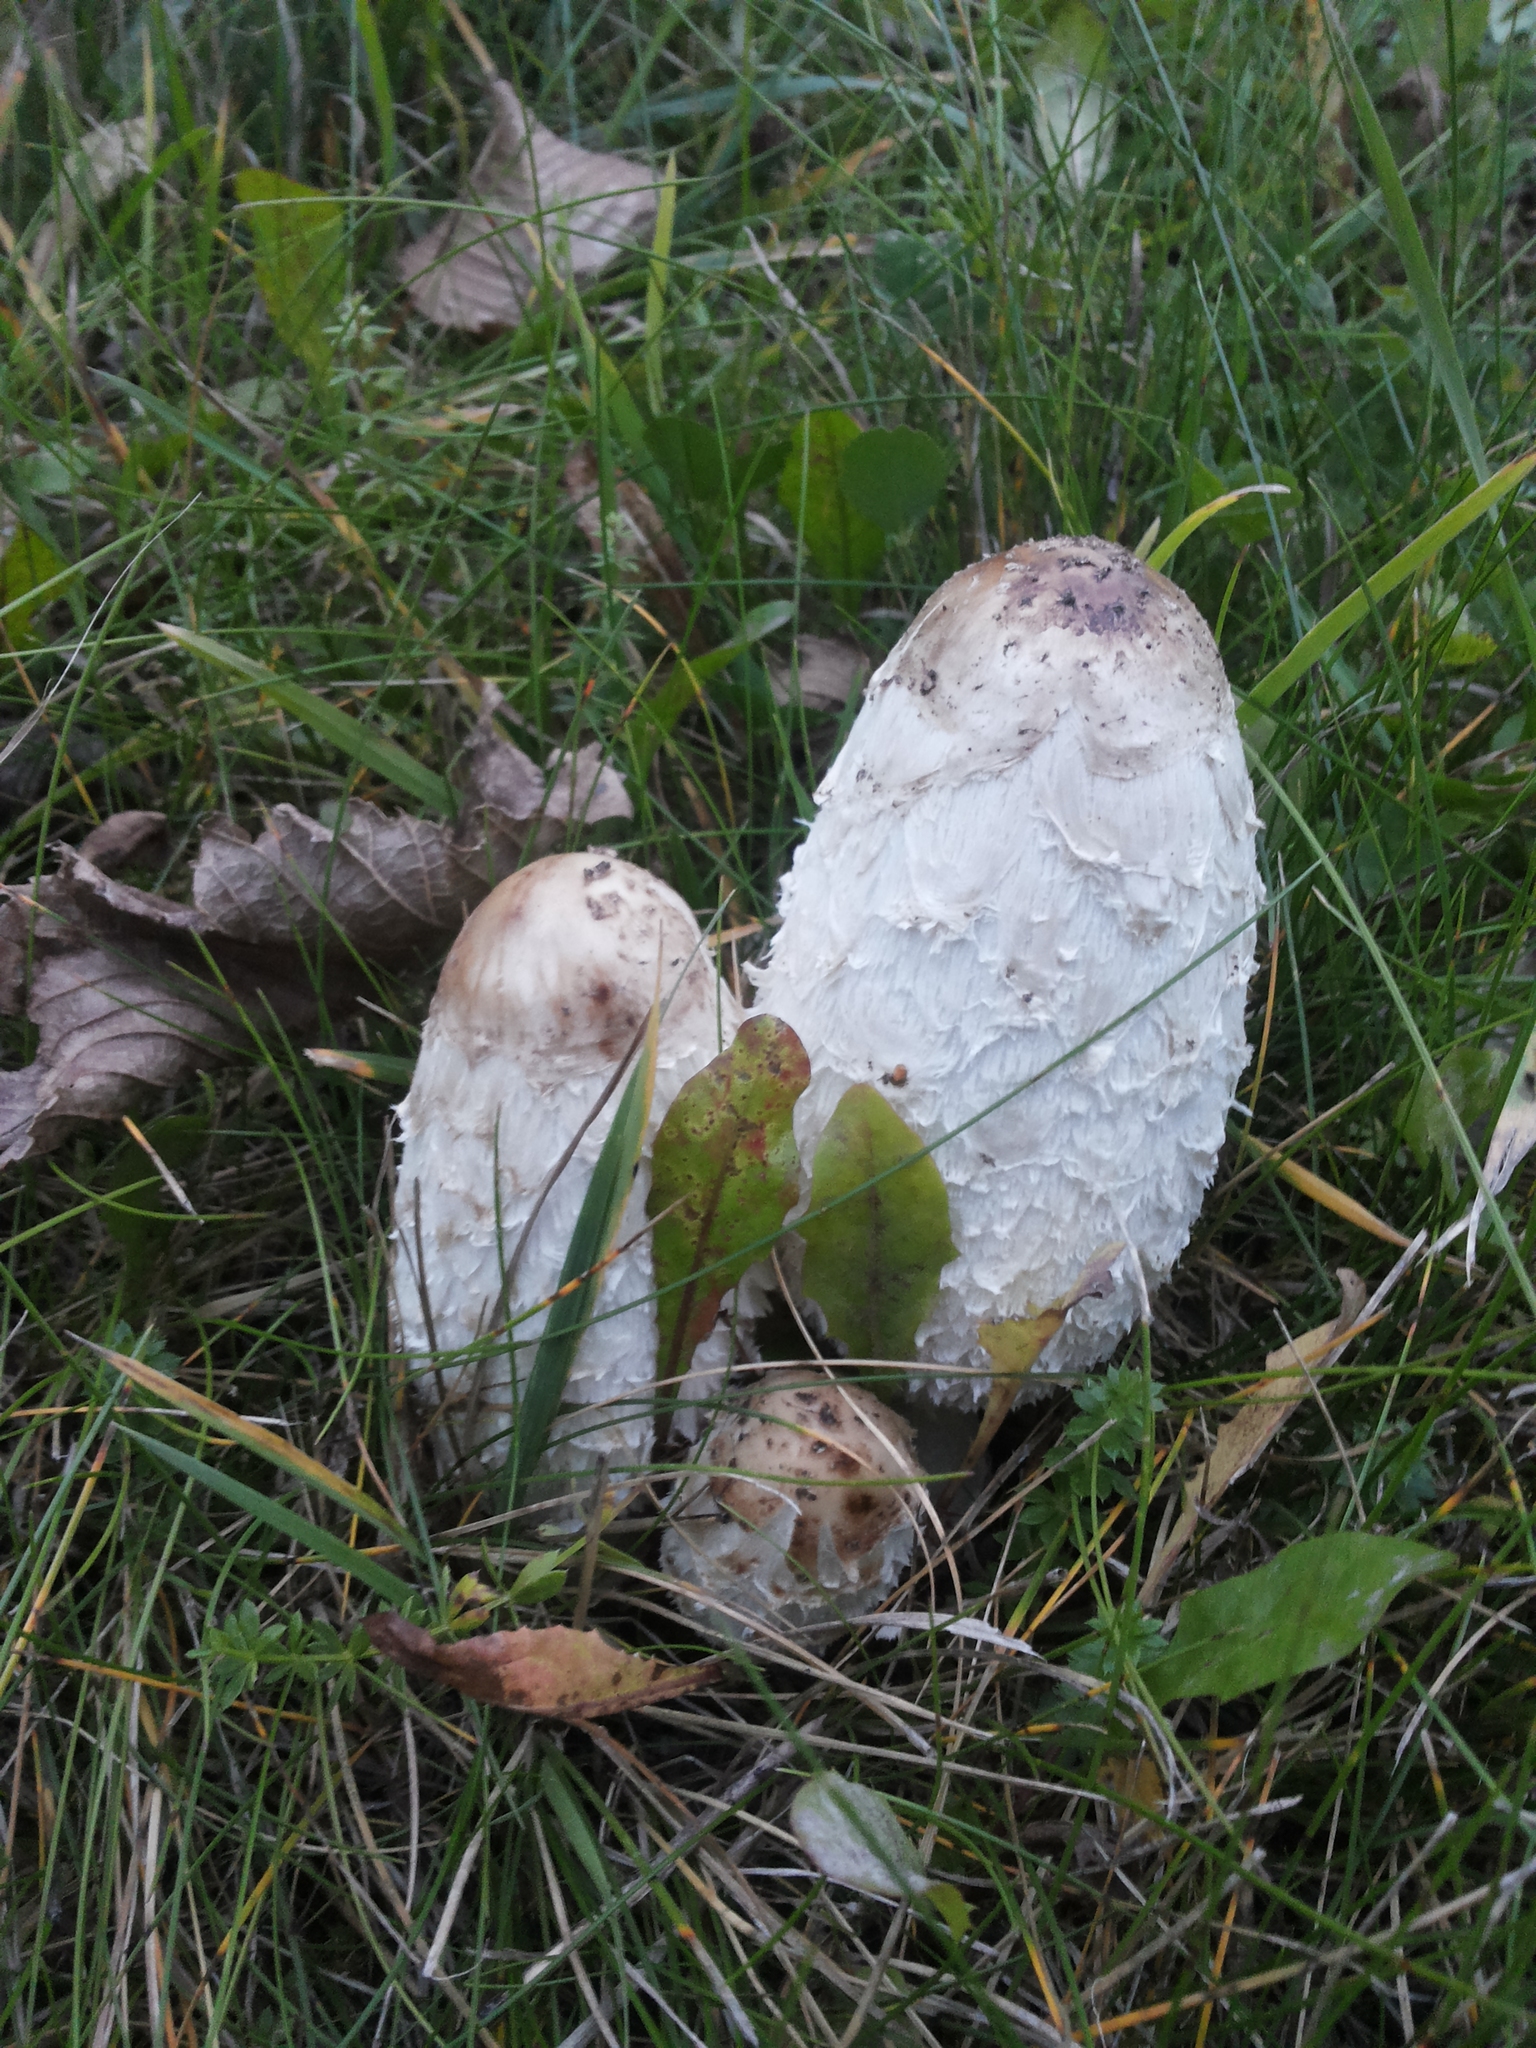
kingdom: Fungi
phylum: Basidiomycota
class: Agaricomycetes
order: Agaricales
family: Agaricaceae
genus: Coprinus
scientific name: Coprinus comatus
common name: Lawyer's wig
